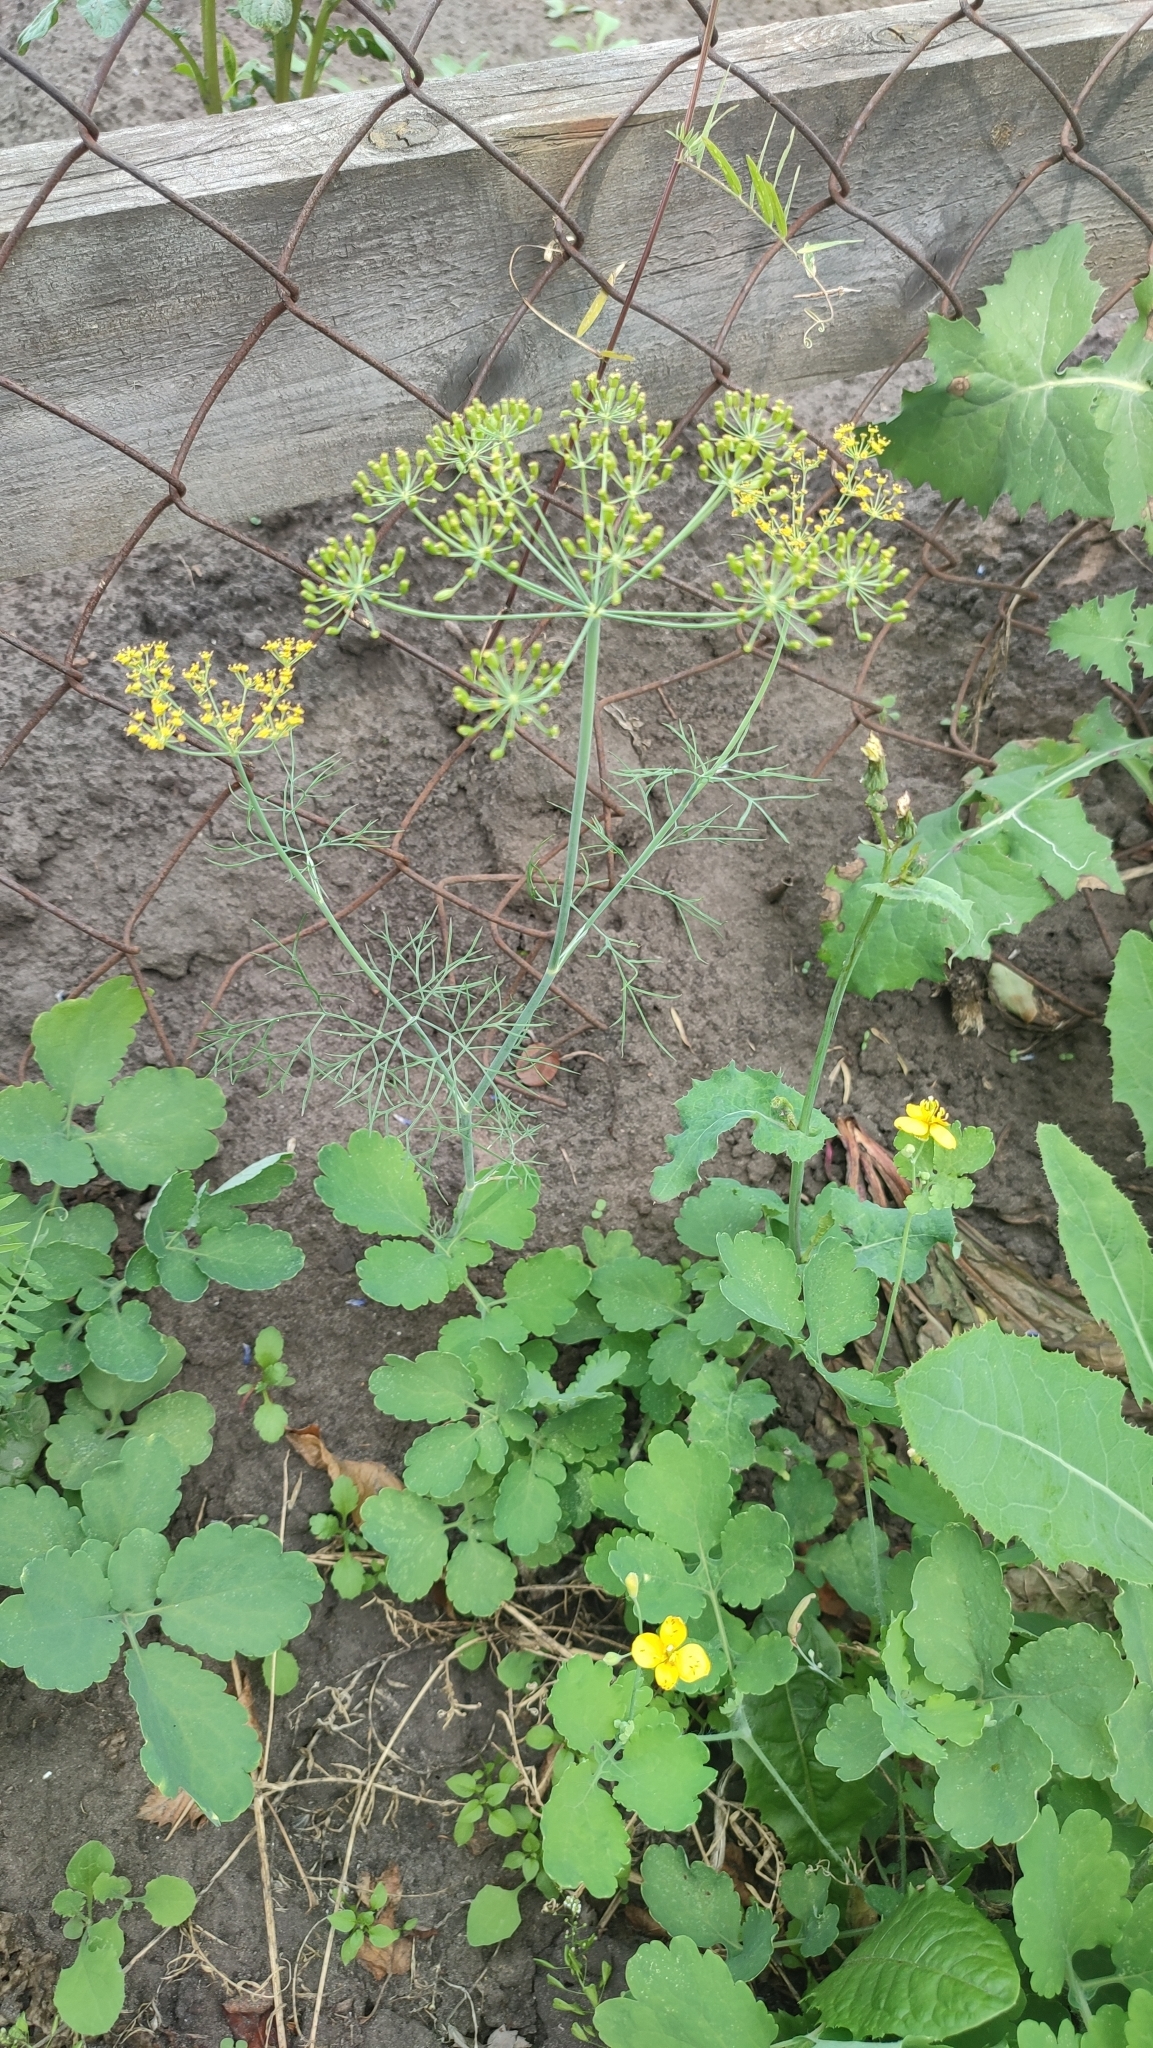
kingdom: Plantae
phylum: Tracheophyta
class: Magnoliopsida
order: Apiales
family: Apiaceae
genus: Anethum
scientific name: Anethum graveolens
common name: Dill
